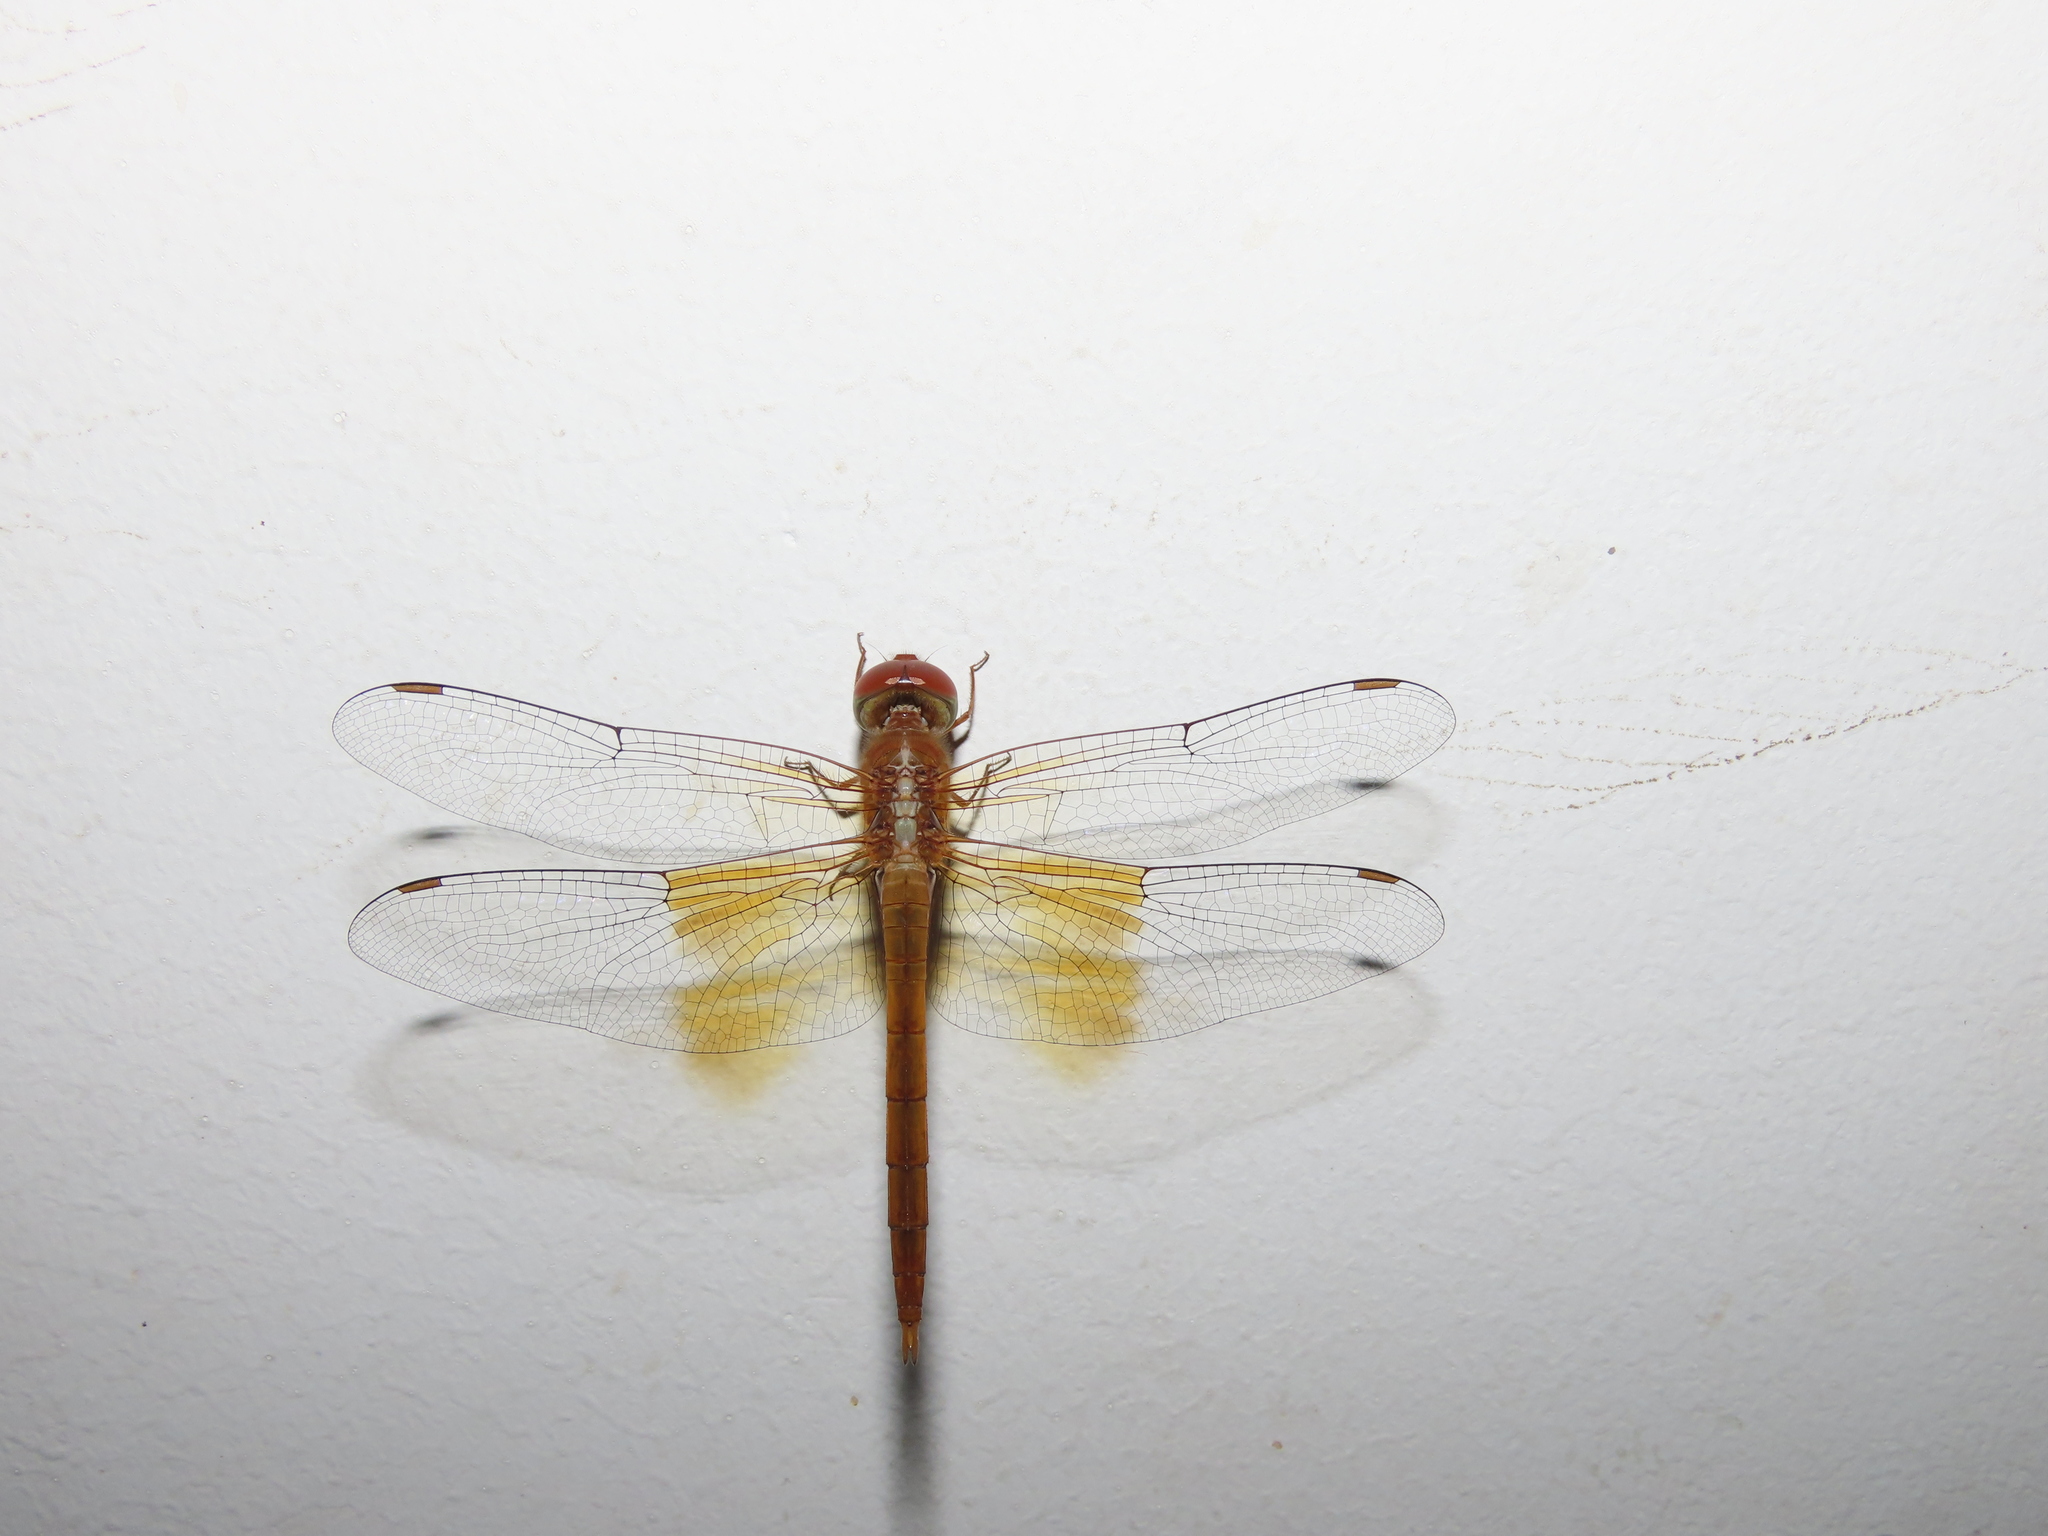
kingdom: Animalia
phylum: Arthropoda
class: Insecta
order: Odonata
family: Libellulidae
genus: Tholymis
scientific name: Tholymis tillarga
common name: Coral-tailed cloud wing
